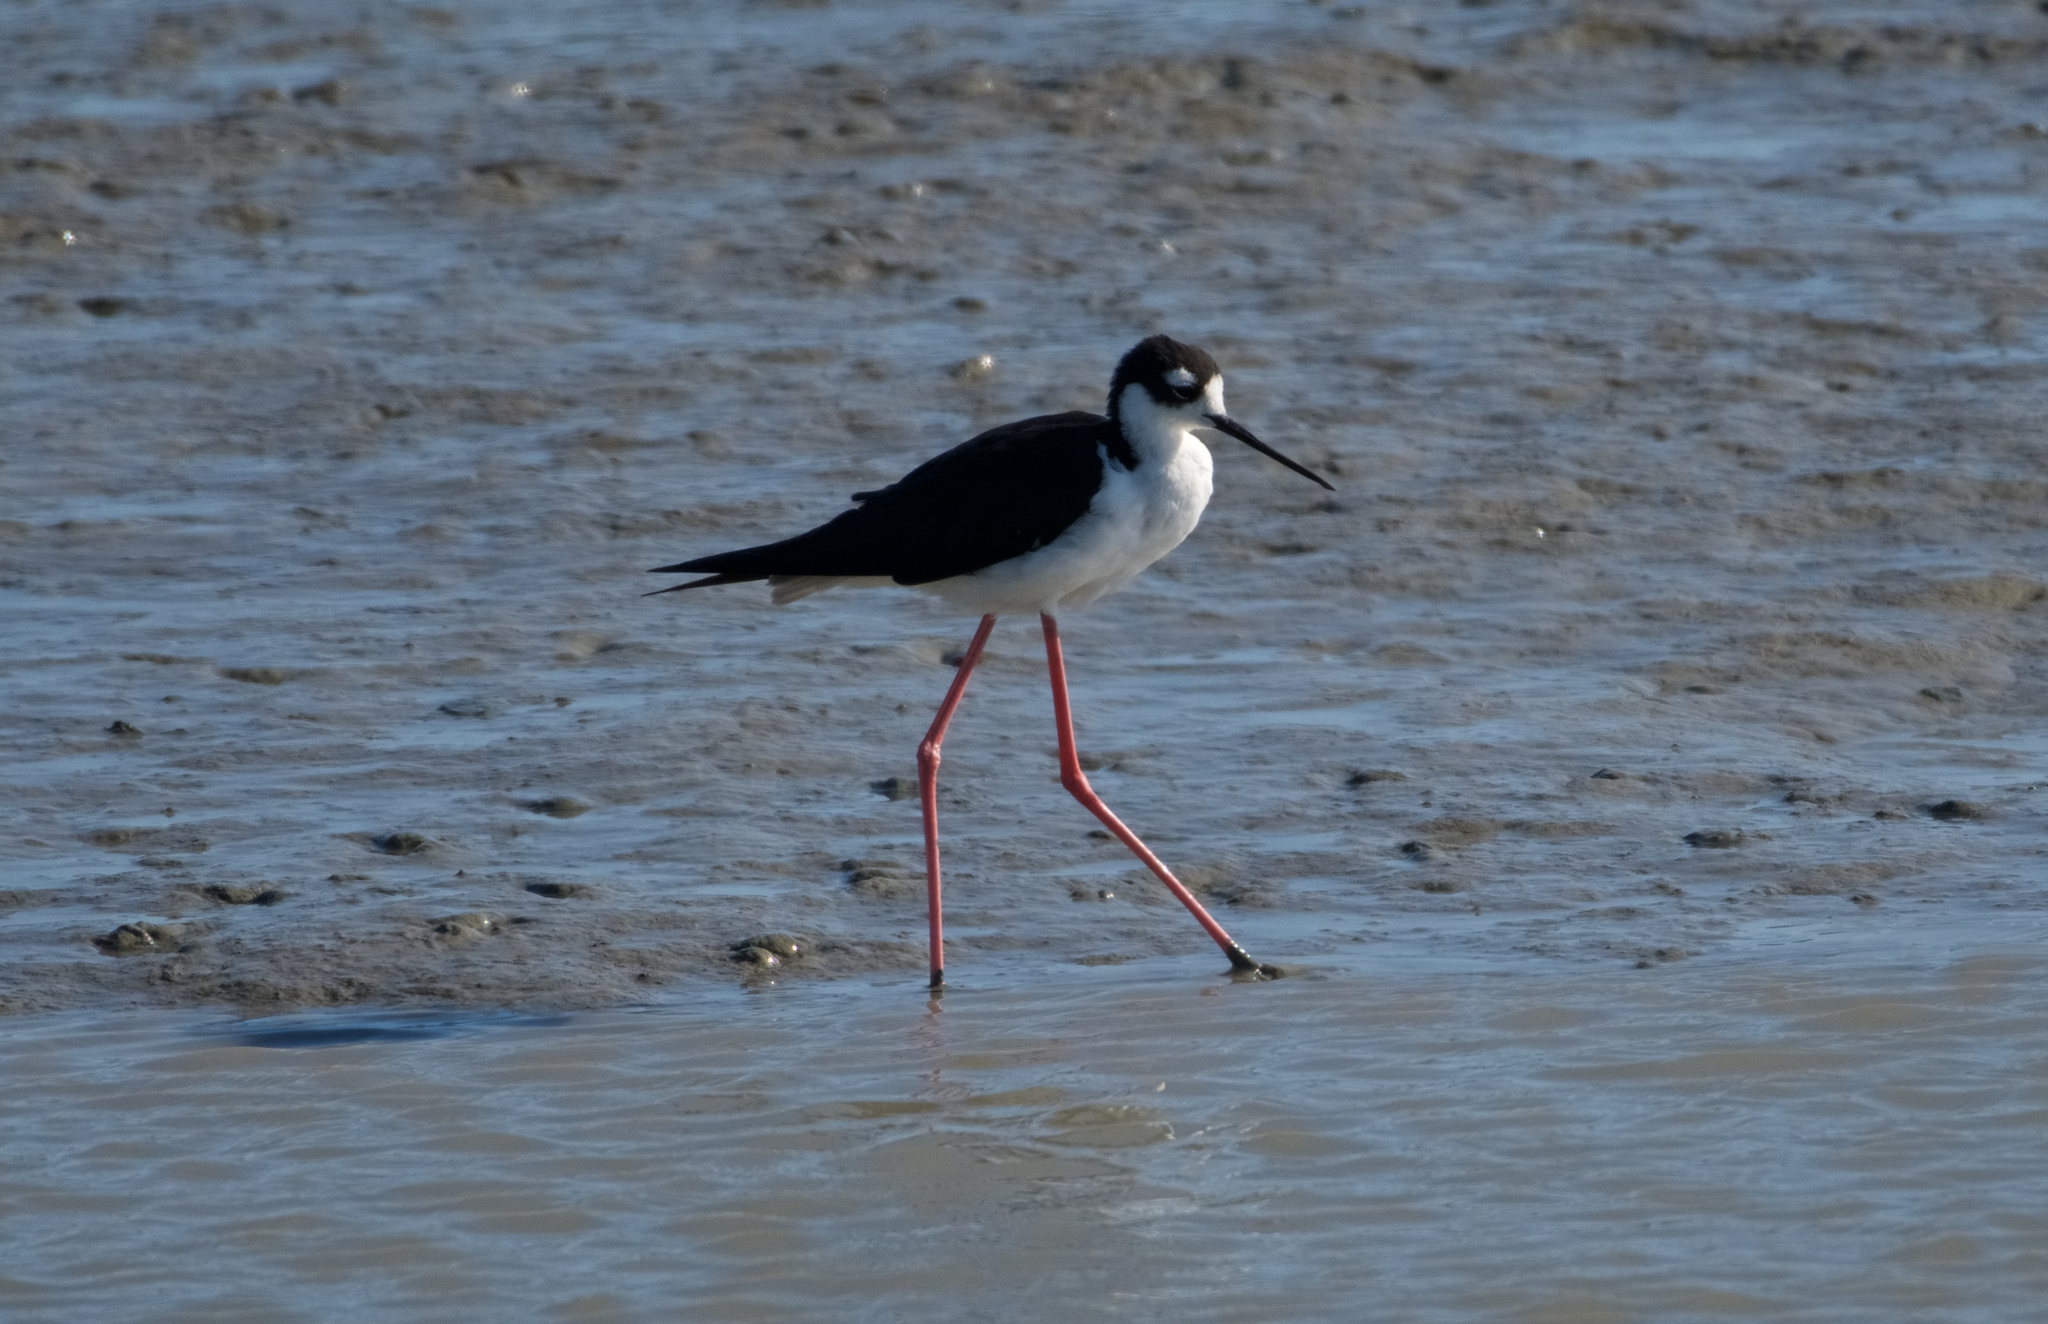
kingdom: Animalia
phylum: Chordata
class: Aves
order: Charadriiformes
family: Recurvirostridae
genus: Himantopus
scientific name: Himantopus mexicanus
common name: Black-necked stilt
